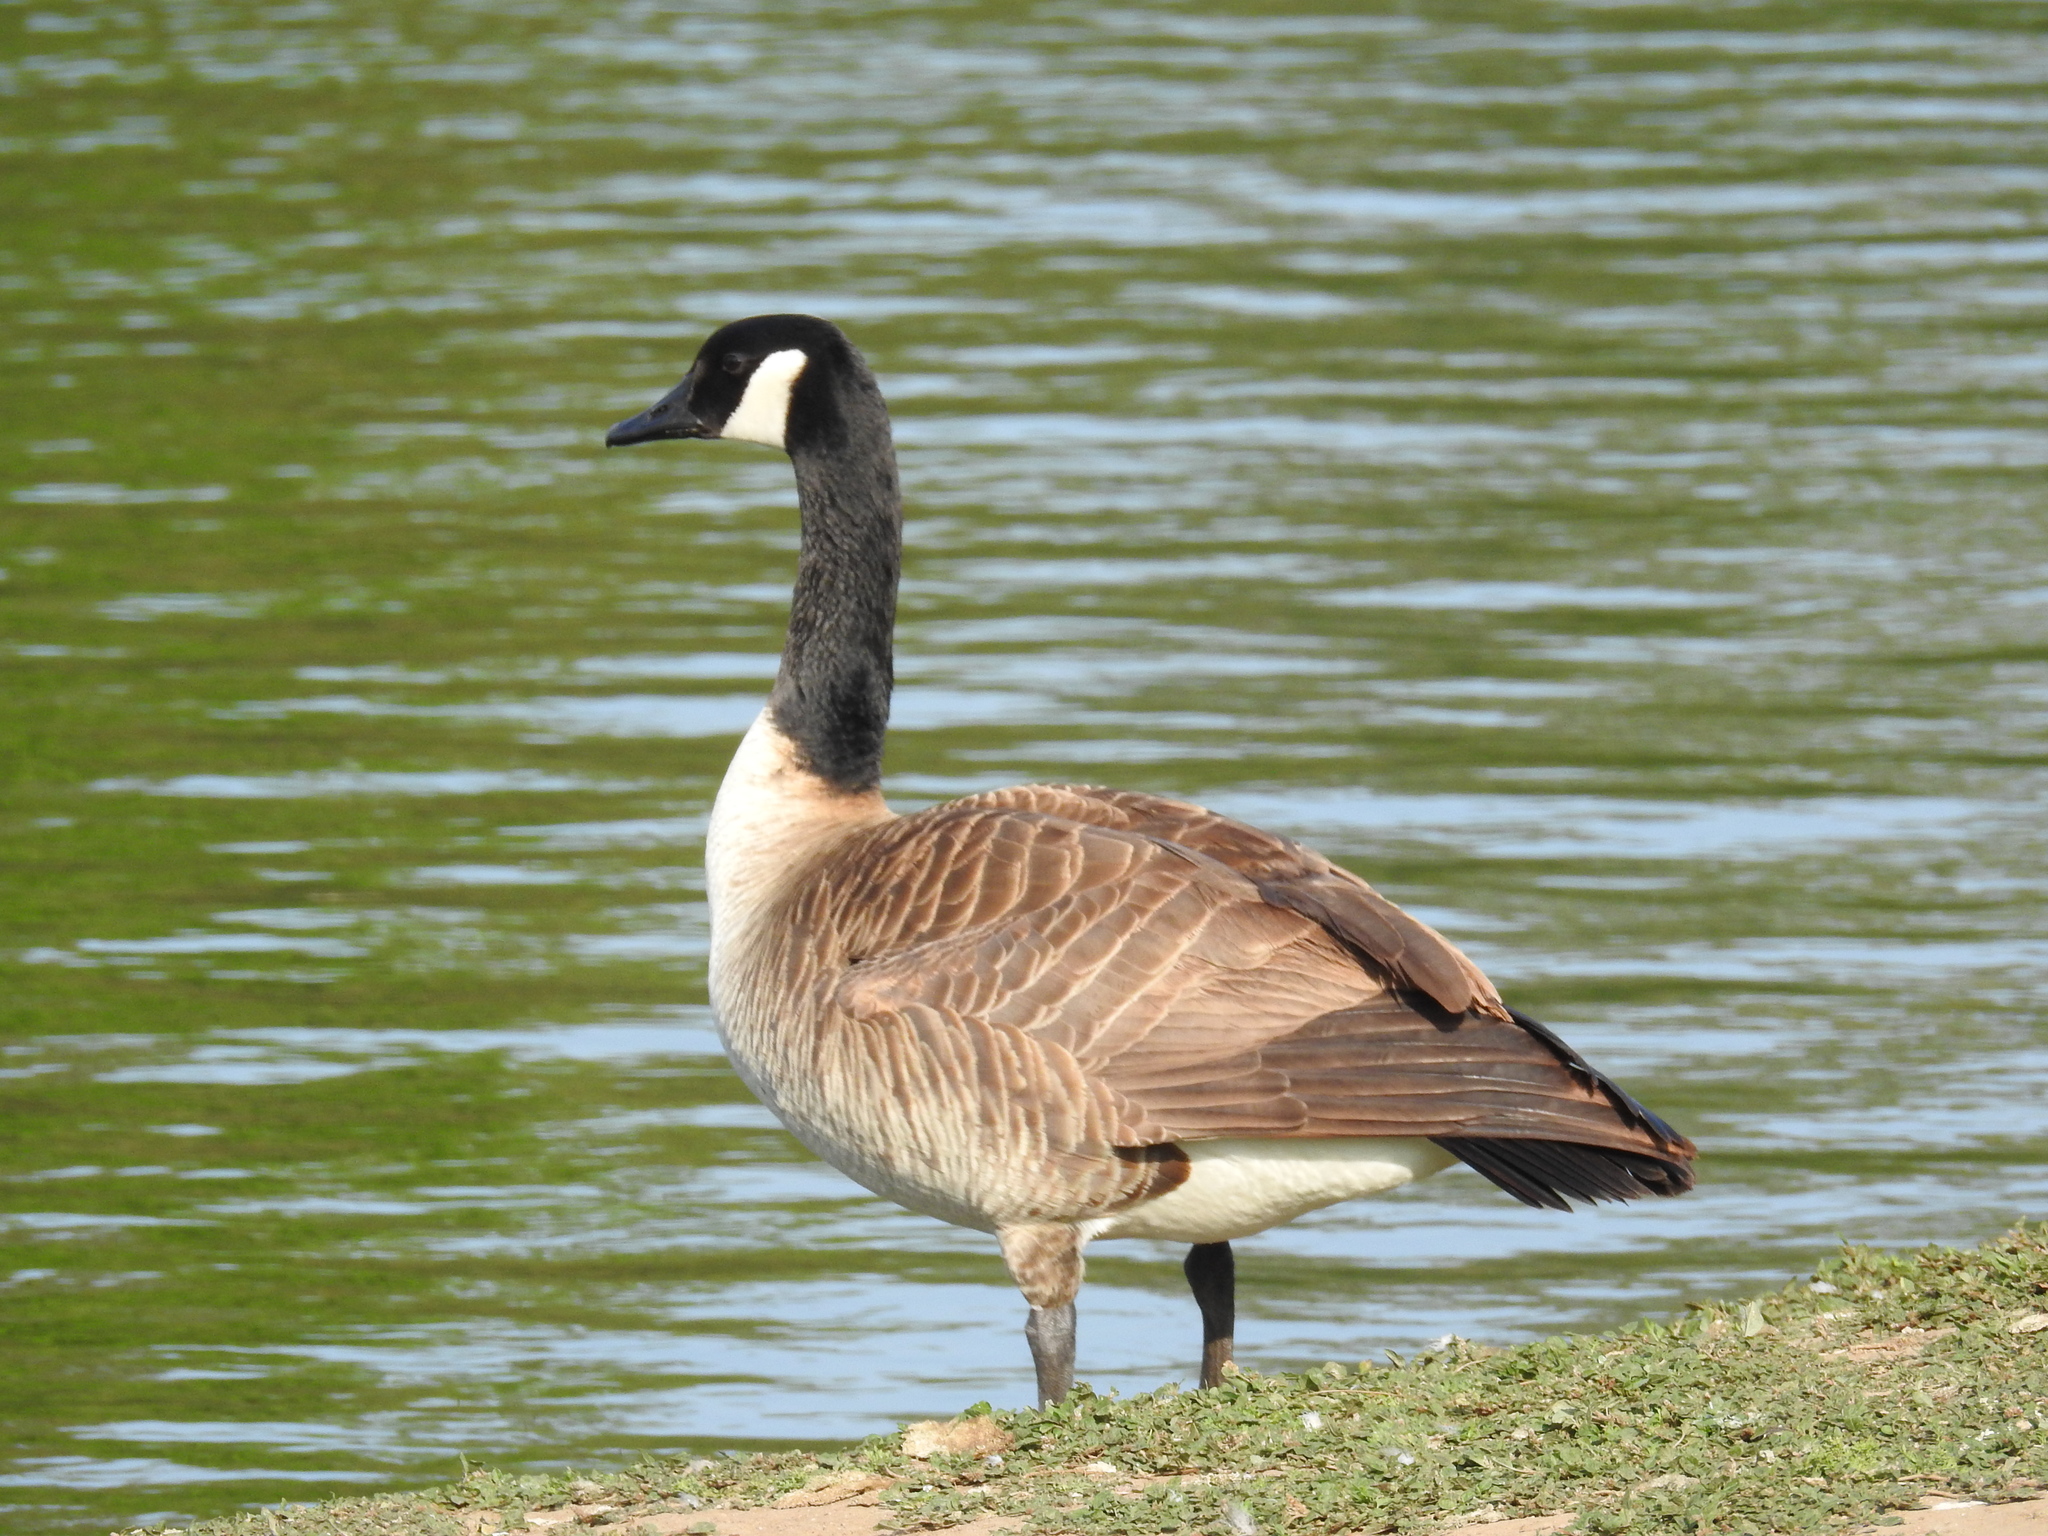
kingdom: Animalia
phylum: Chordata
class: Aves
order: Anseriformes
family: Anatidae
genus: Branta
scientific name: Branta canadensis
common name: Canada goose
